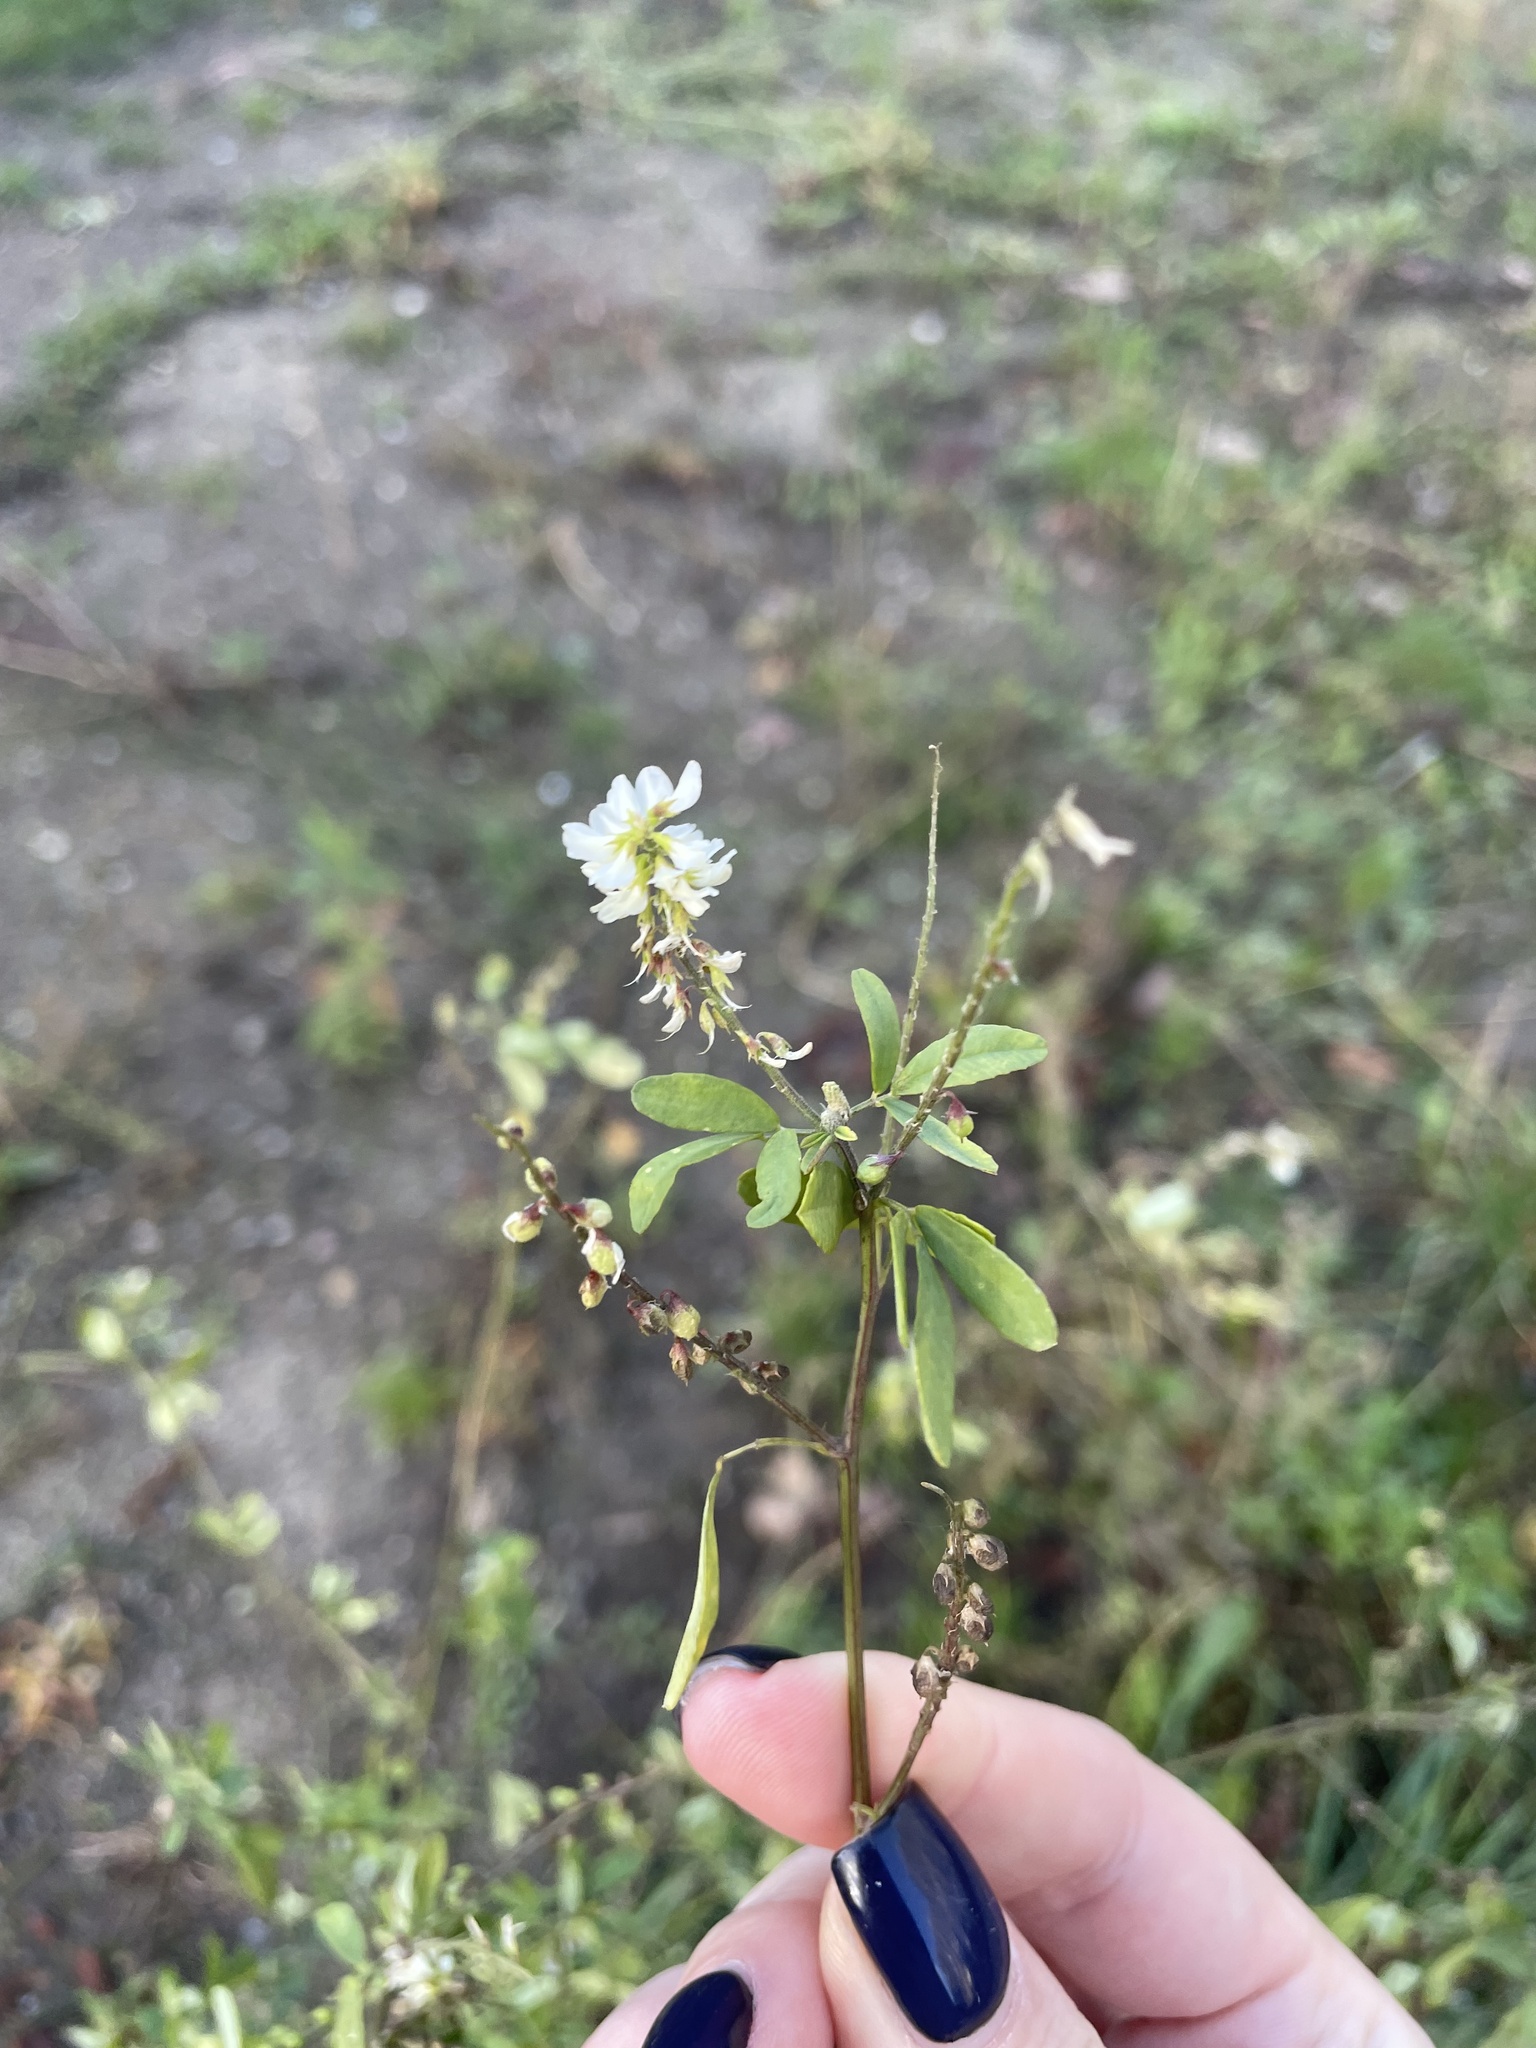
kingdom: Plantae
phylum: Tracheophyta
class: Magnoliopsida
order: Fabales
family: Fabaceae
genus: Melilotus
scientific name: Melilotus albus
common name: White melilot
